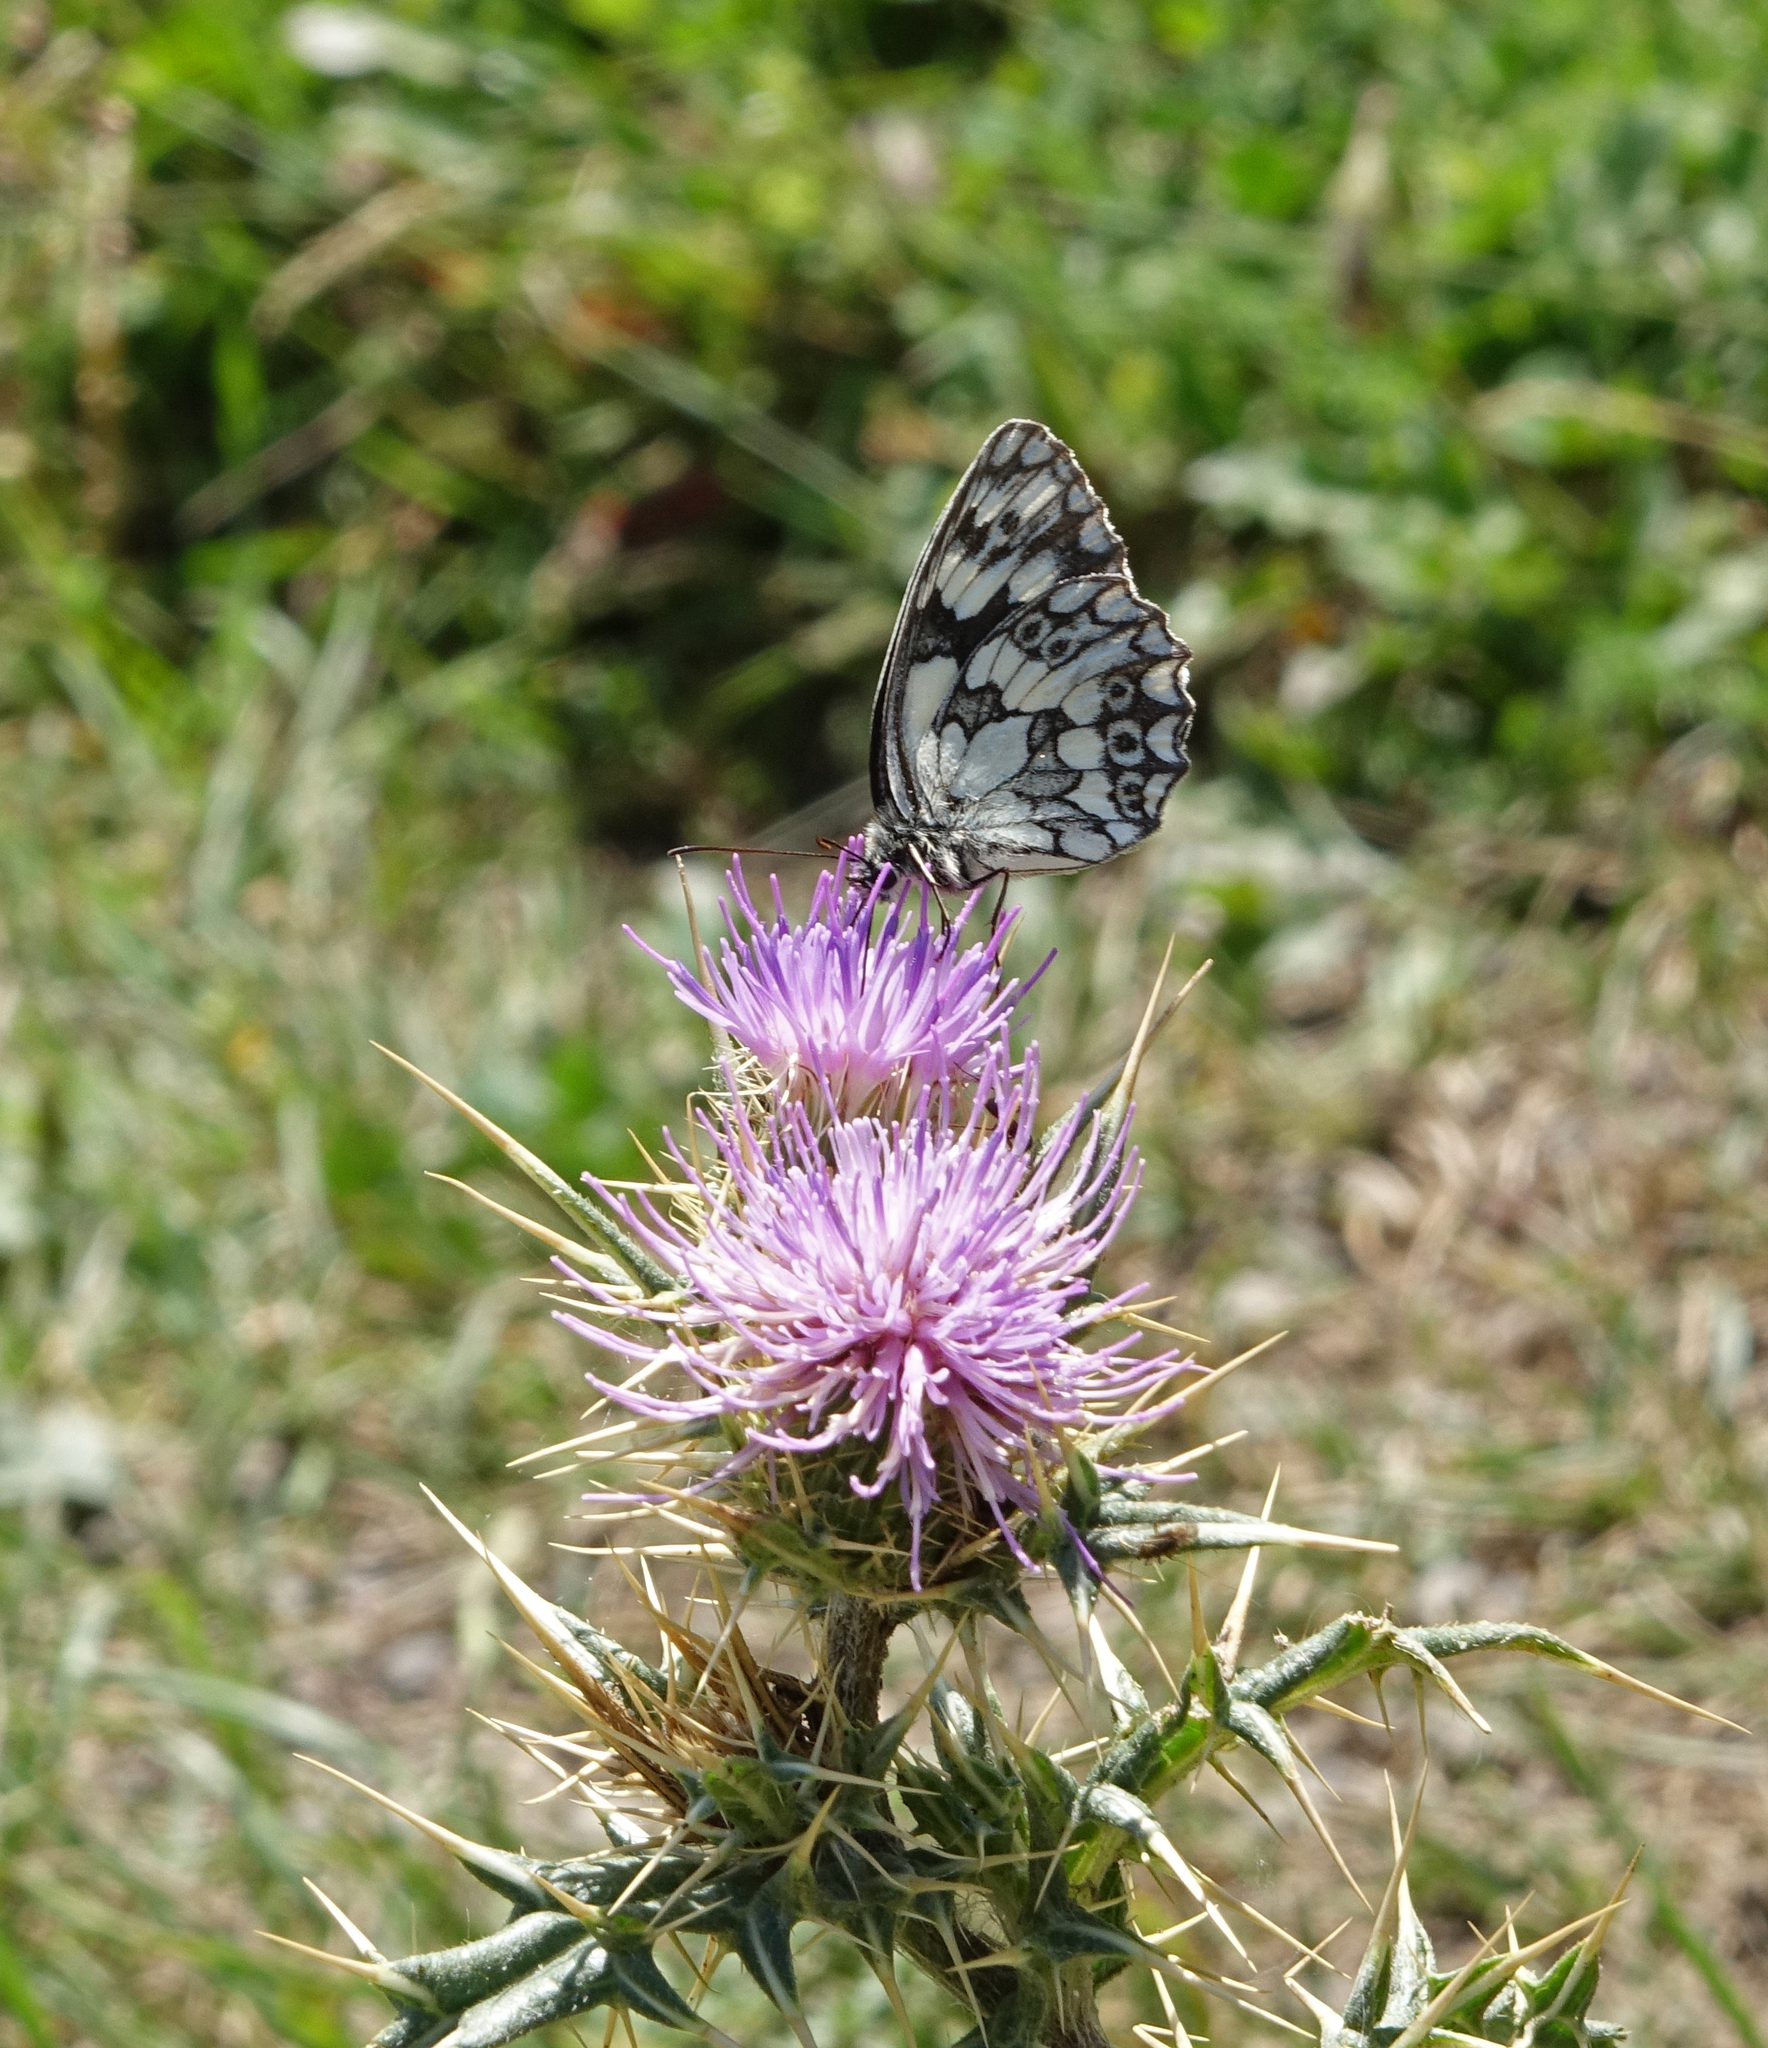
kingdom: Animalia
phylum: Arthropoda
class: Insecta
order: Lepidoptera
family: Nymphalidae
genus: Melanargia
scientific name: Melanargia galathea
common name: Marbled white
